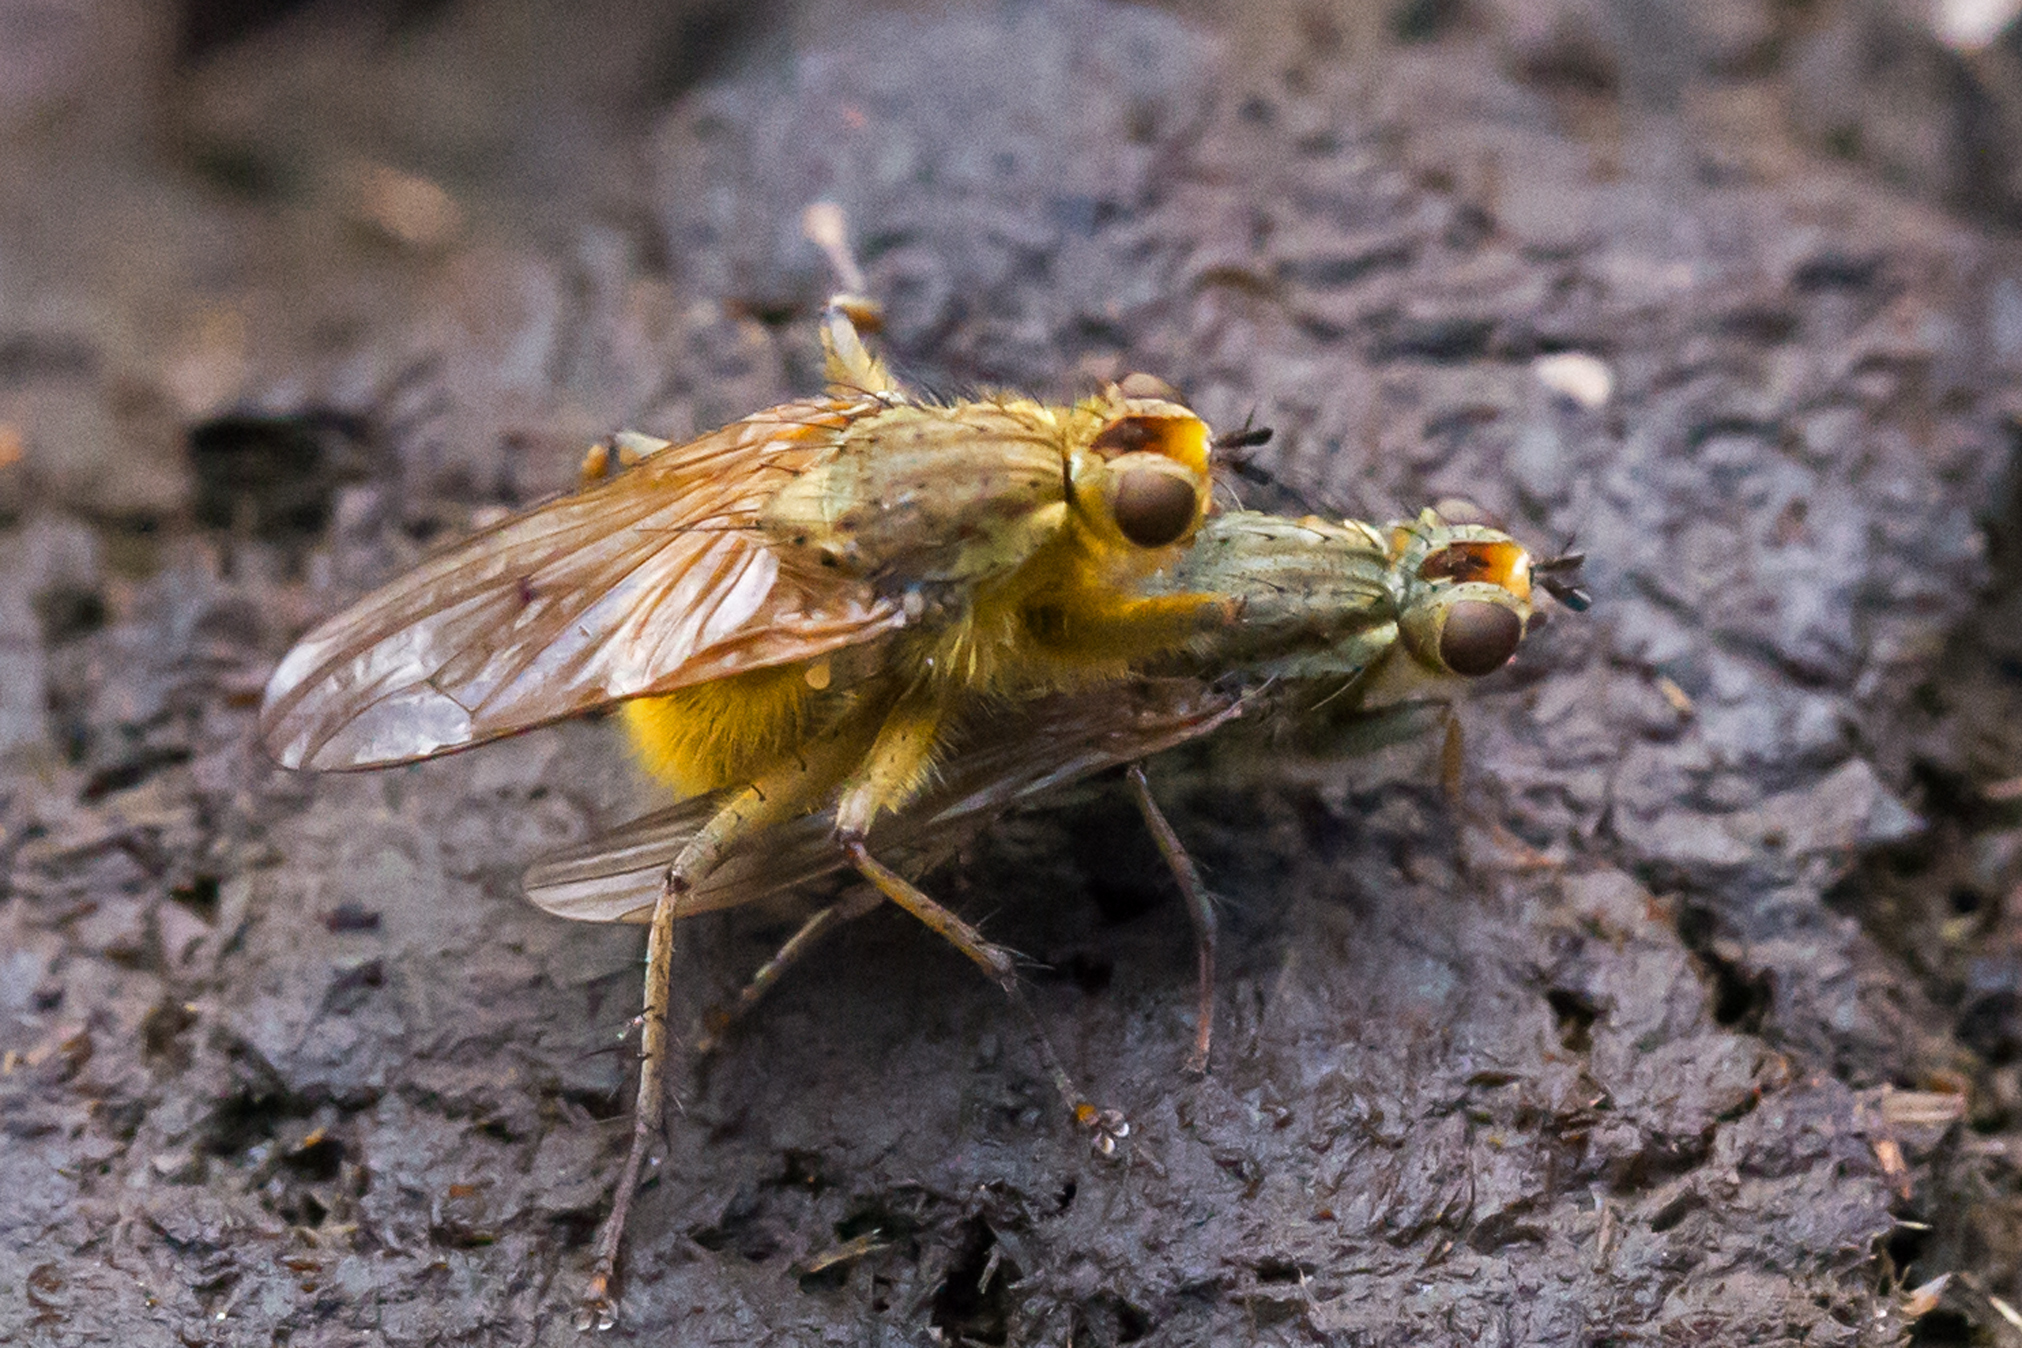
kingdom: Animalia
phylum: Arthropoda
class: Insecta
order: Diptera
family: Scathophagidae
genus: Scathophaga
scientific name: Scathophaga stercoraria
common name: Yellow dung fly
